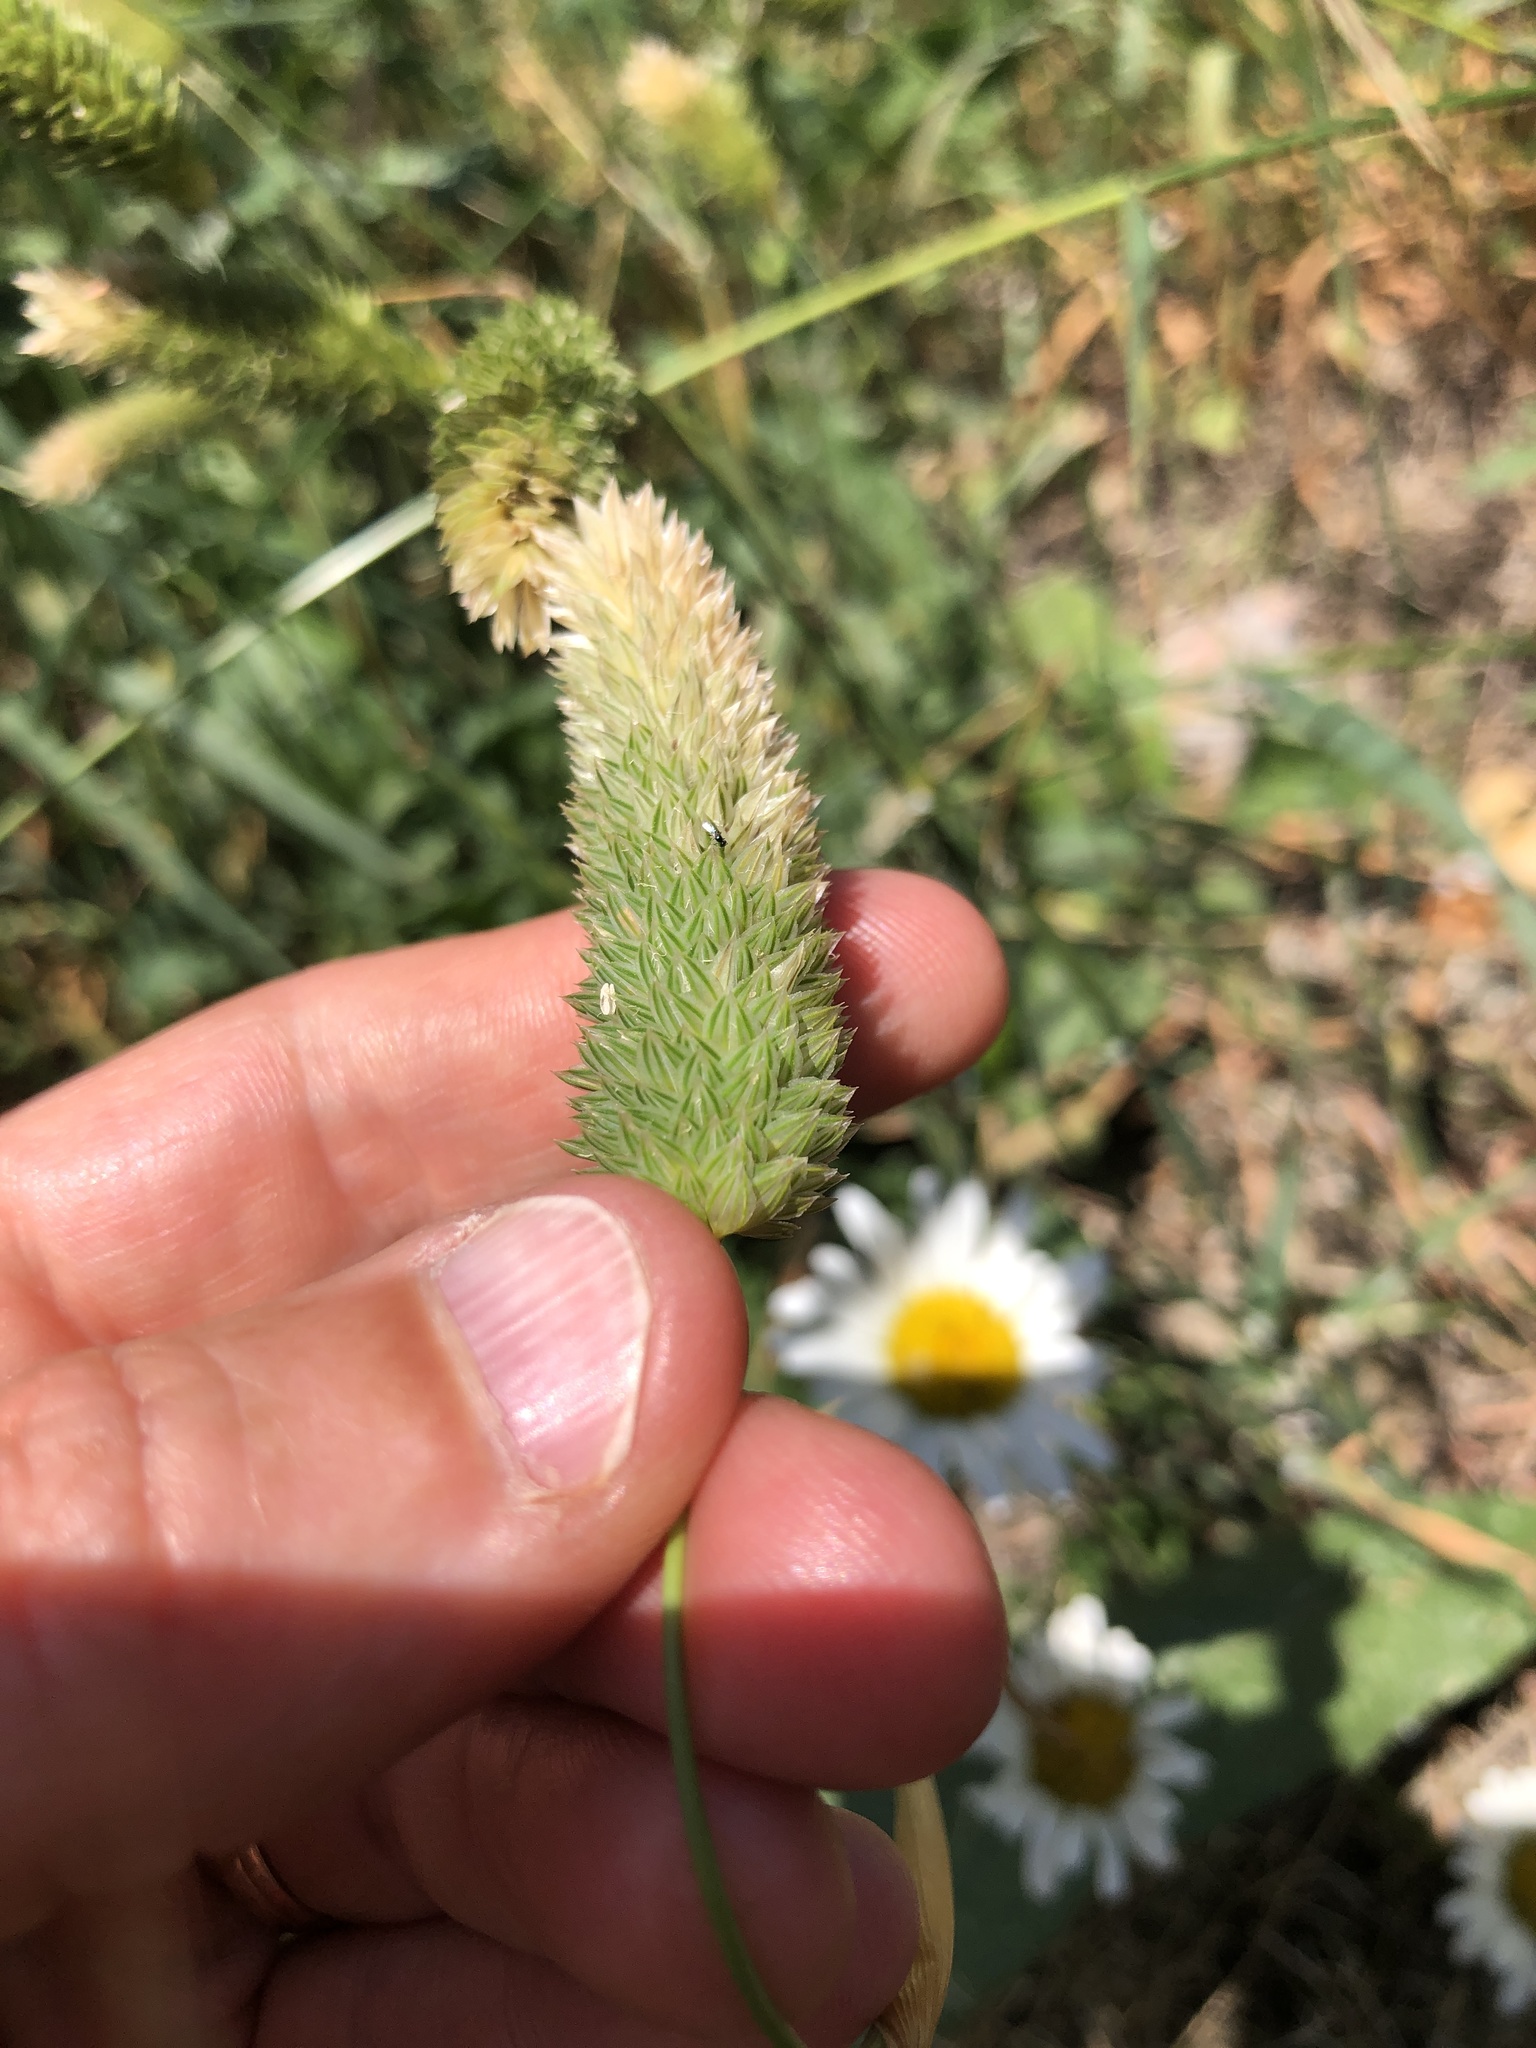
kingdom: Plantae
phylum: Tracheophyta
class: Liliopsida
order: Poales
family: Poaceae
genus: Phalaris
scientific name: Phalaris canariensis
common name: Annual canarygrass
